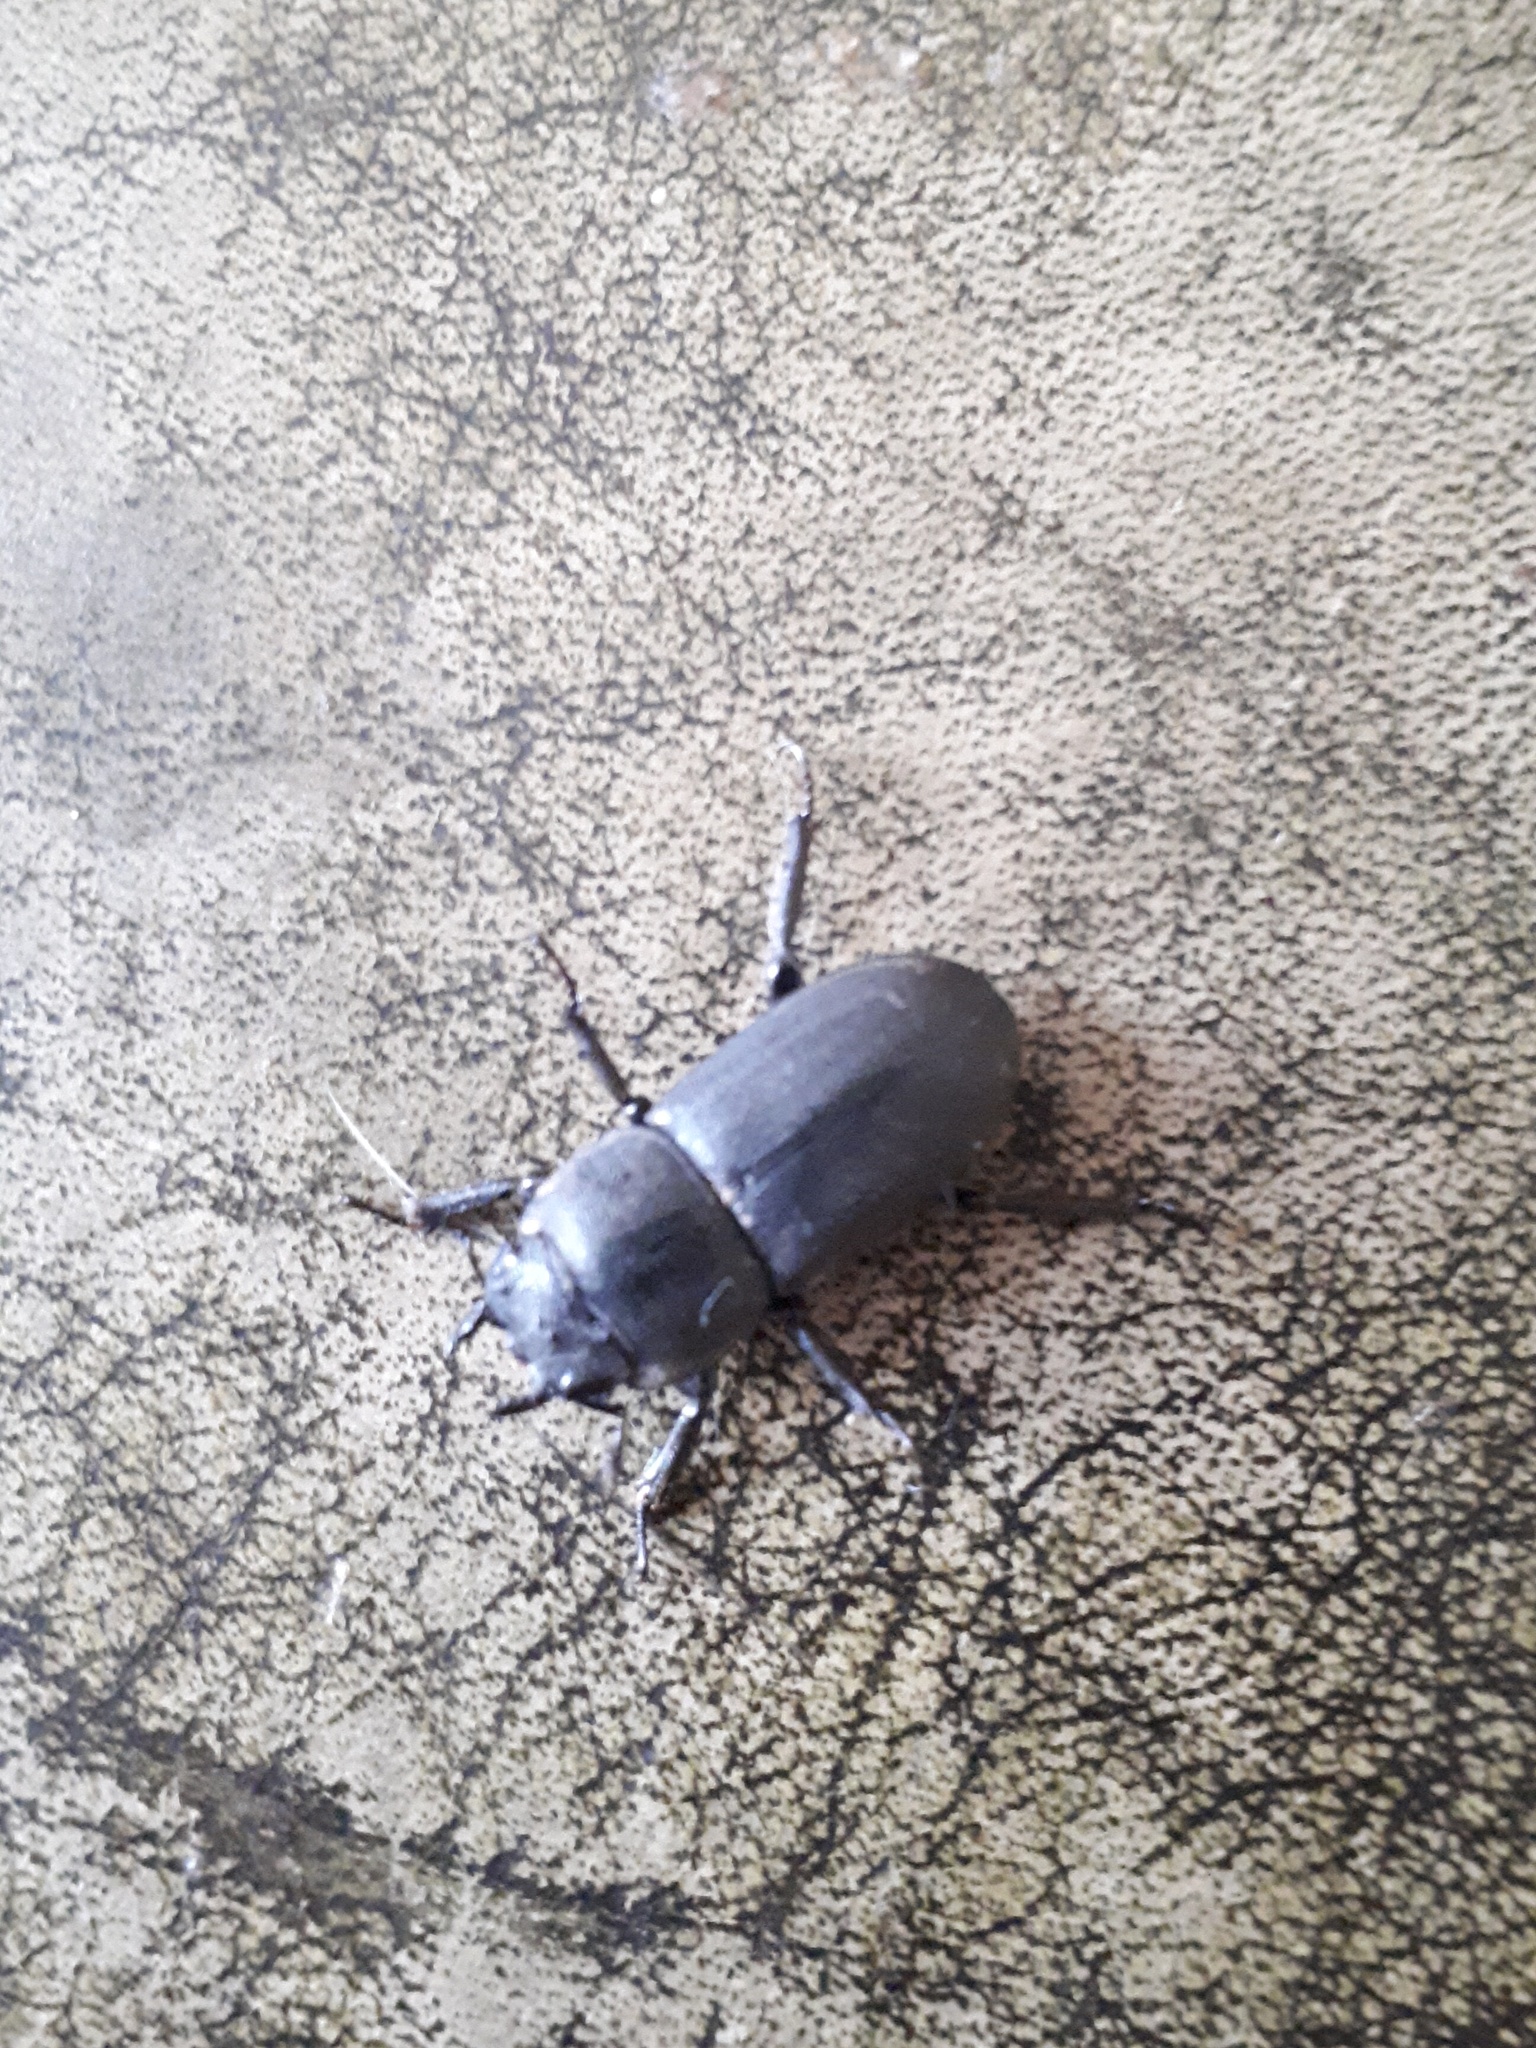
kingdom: Animalia
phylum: Arthropoda
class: Insecta
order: Coleoptera
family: Lucanidae
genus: Dorcus
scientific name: Dorcus parallelipipedus
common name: Lesser stag beetle
